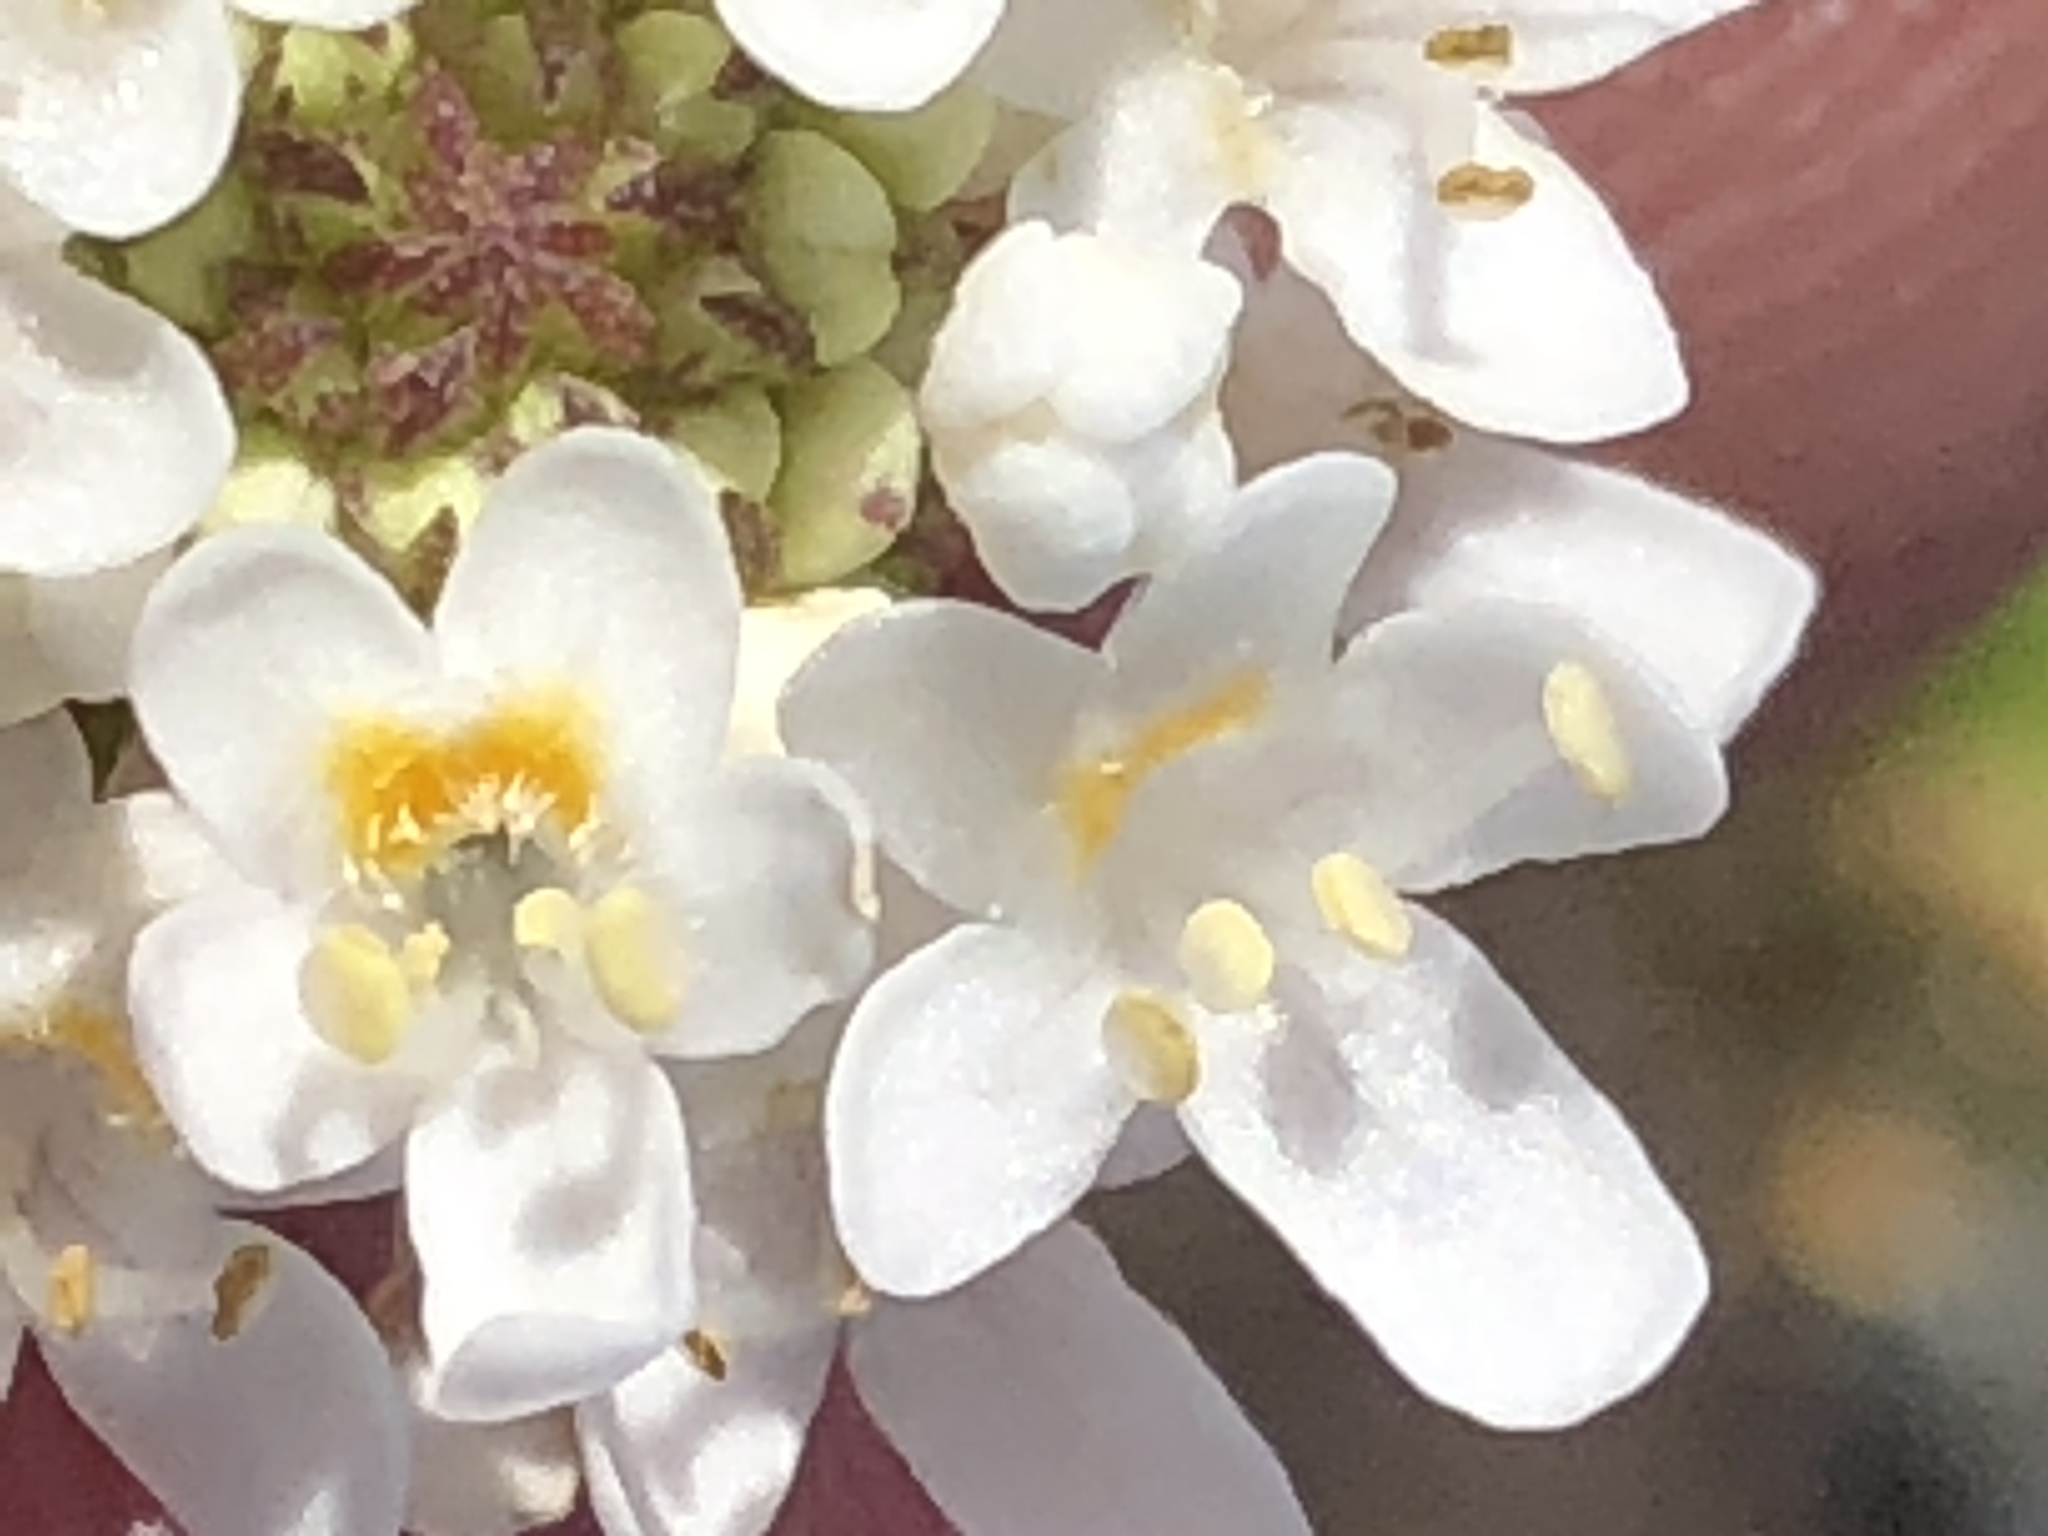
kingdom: Plantae
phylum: Tracheophyta
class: Magnoliopsida
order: Lamiales
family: Scrophulariaceae
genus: Pseudoselago
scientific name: Pseudoselago outeniquensis
